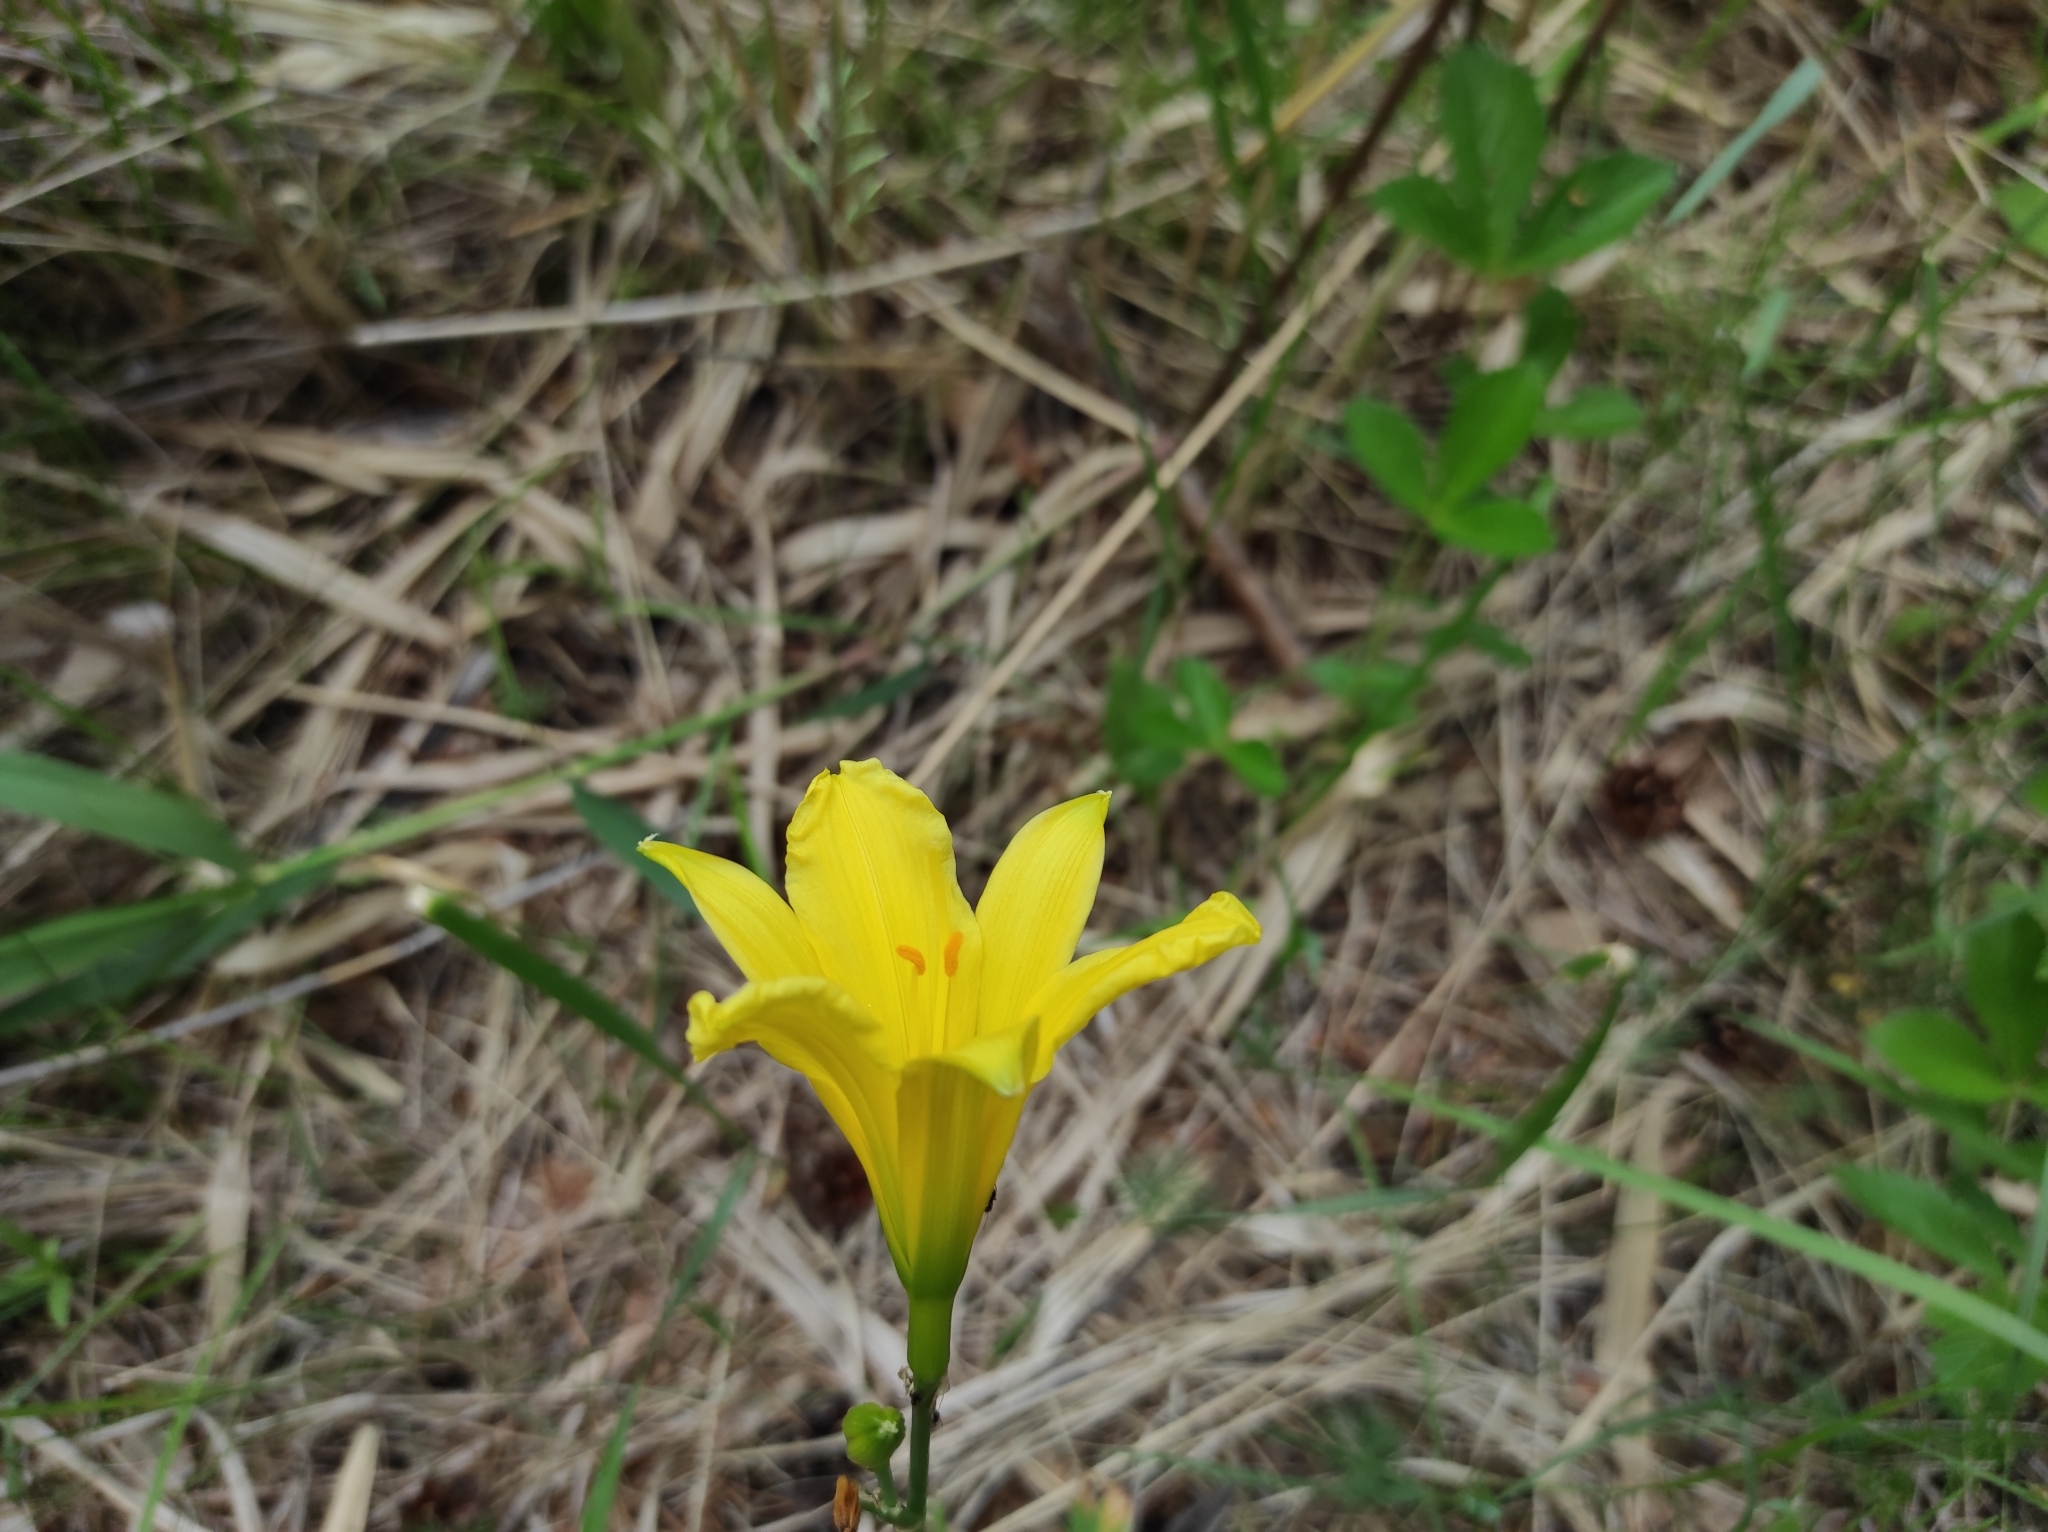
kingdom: Plantae
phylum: Tracheophyta
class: Liliopsida
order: Asparagales
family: Asphodelaceae
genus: Hemerocallis
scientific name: Hemerocallis minor
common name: Small daylily
